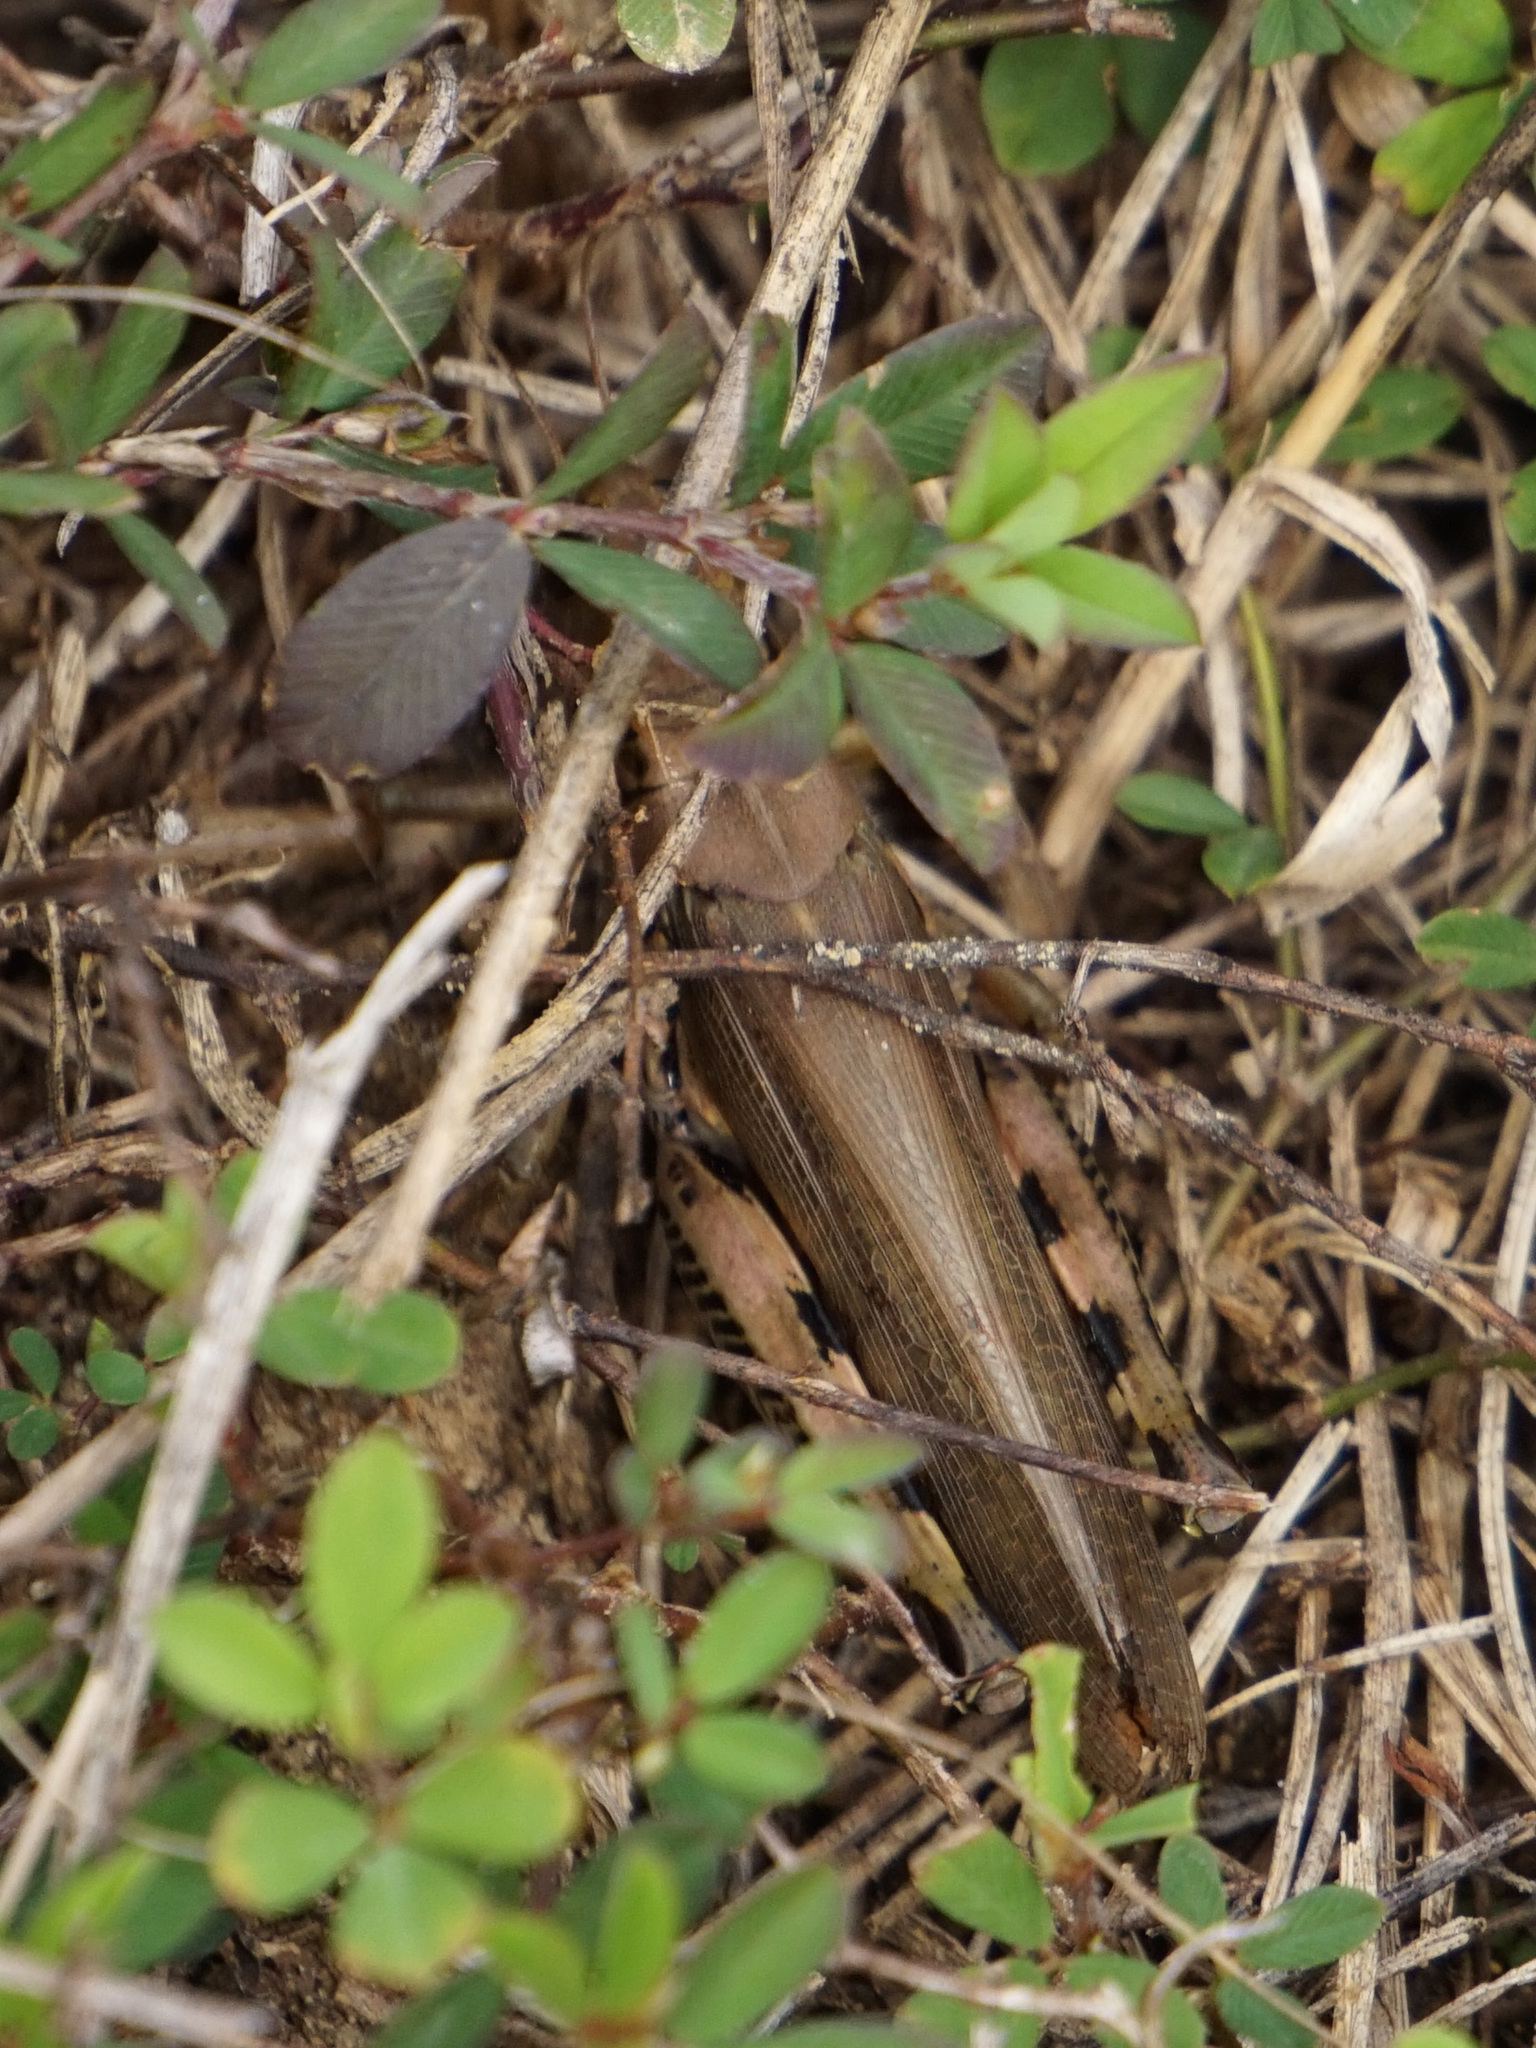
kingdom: Animalia
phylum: Arthropoda
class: Insecta
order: Orthoptera
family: Acrididae
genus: Melanoplus
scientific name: Melanoplus differentialis
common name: Differential grasshopper
